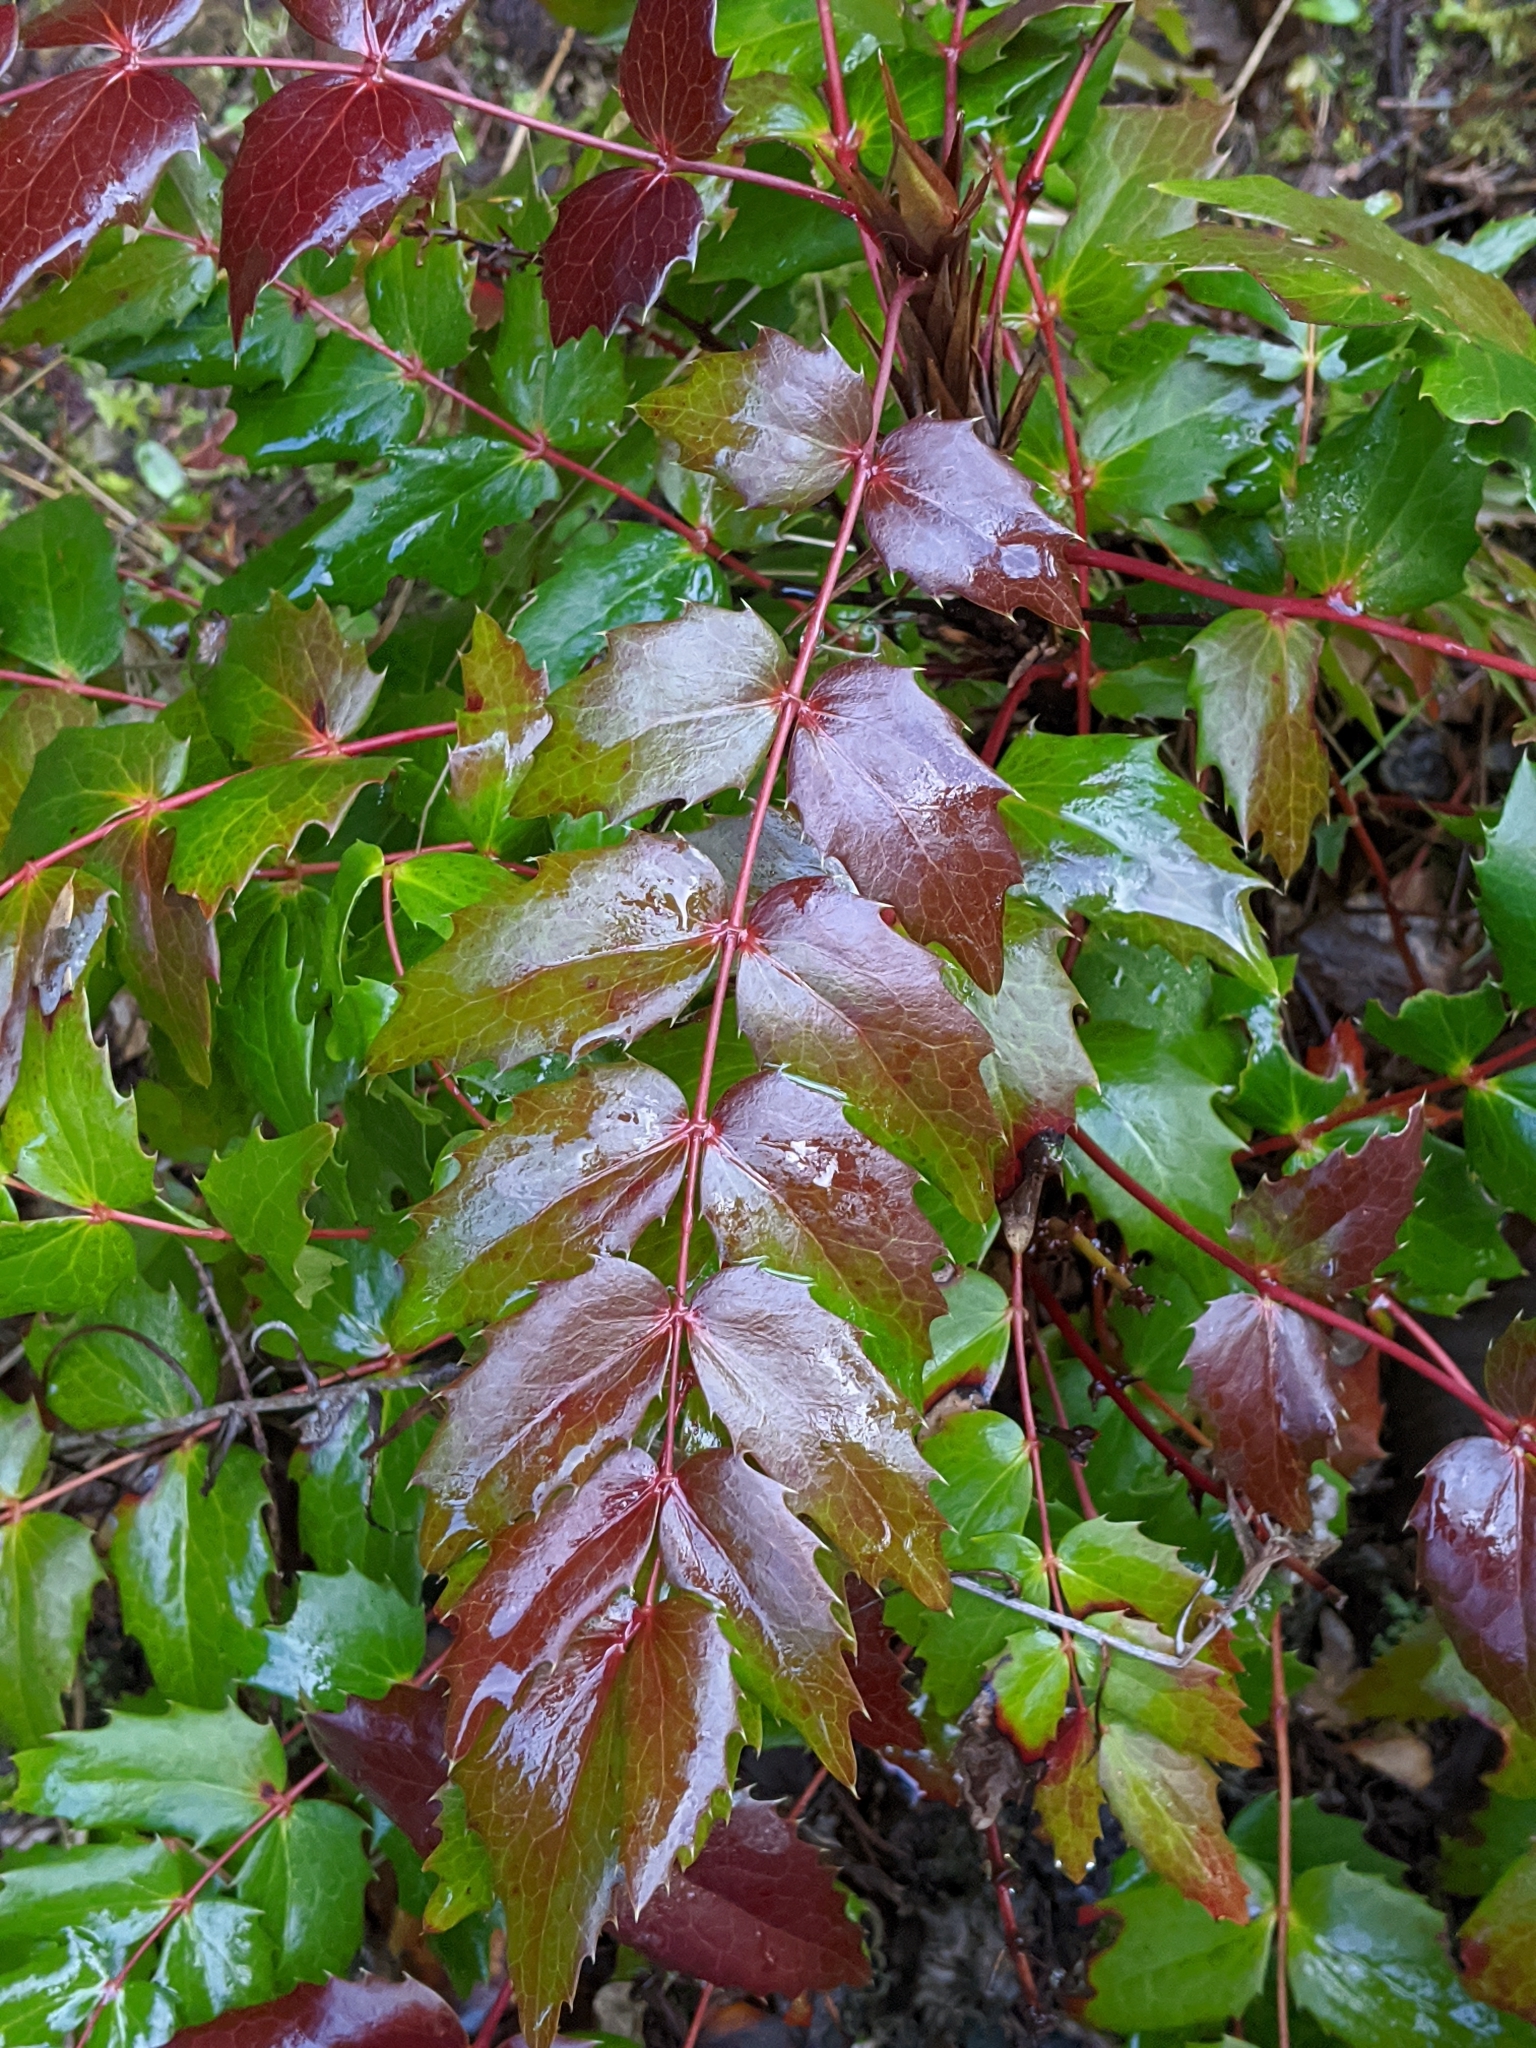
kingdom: Plantae
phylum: Tracheophyta
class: Magnoliopsida
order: Ranunculales
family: Berberidaceae
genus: Mahonia
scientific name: Mahonia nervosa
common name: Cascade oregon-grape
